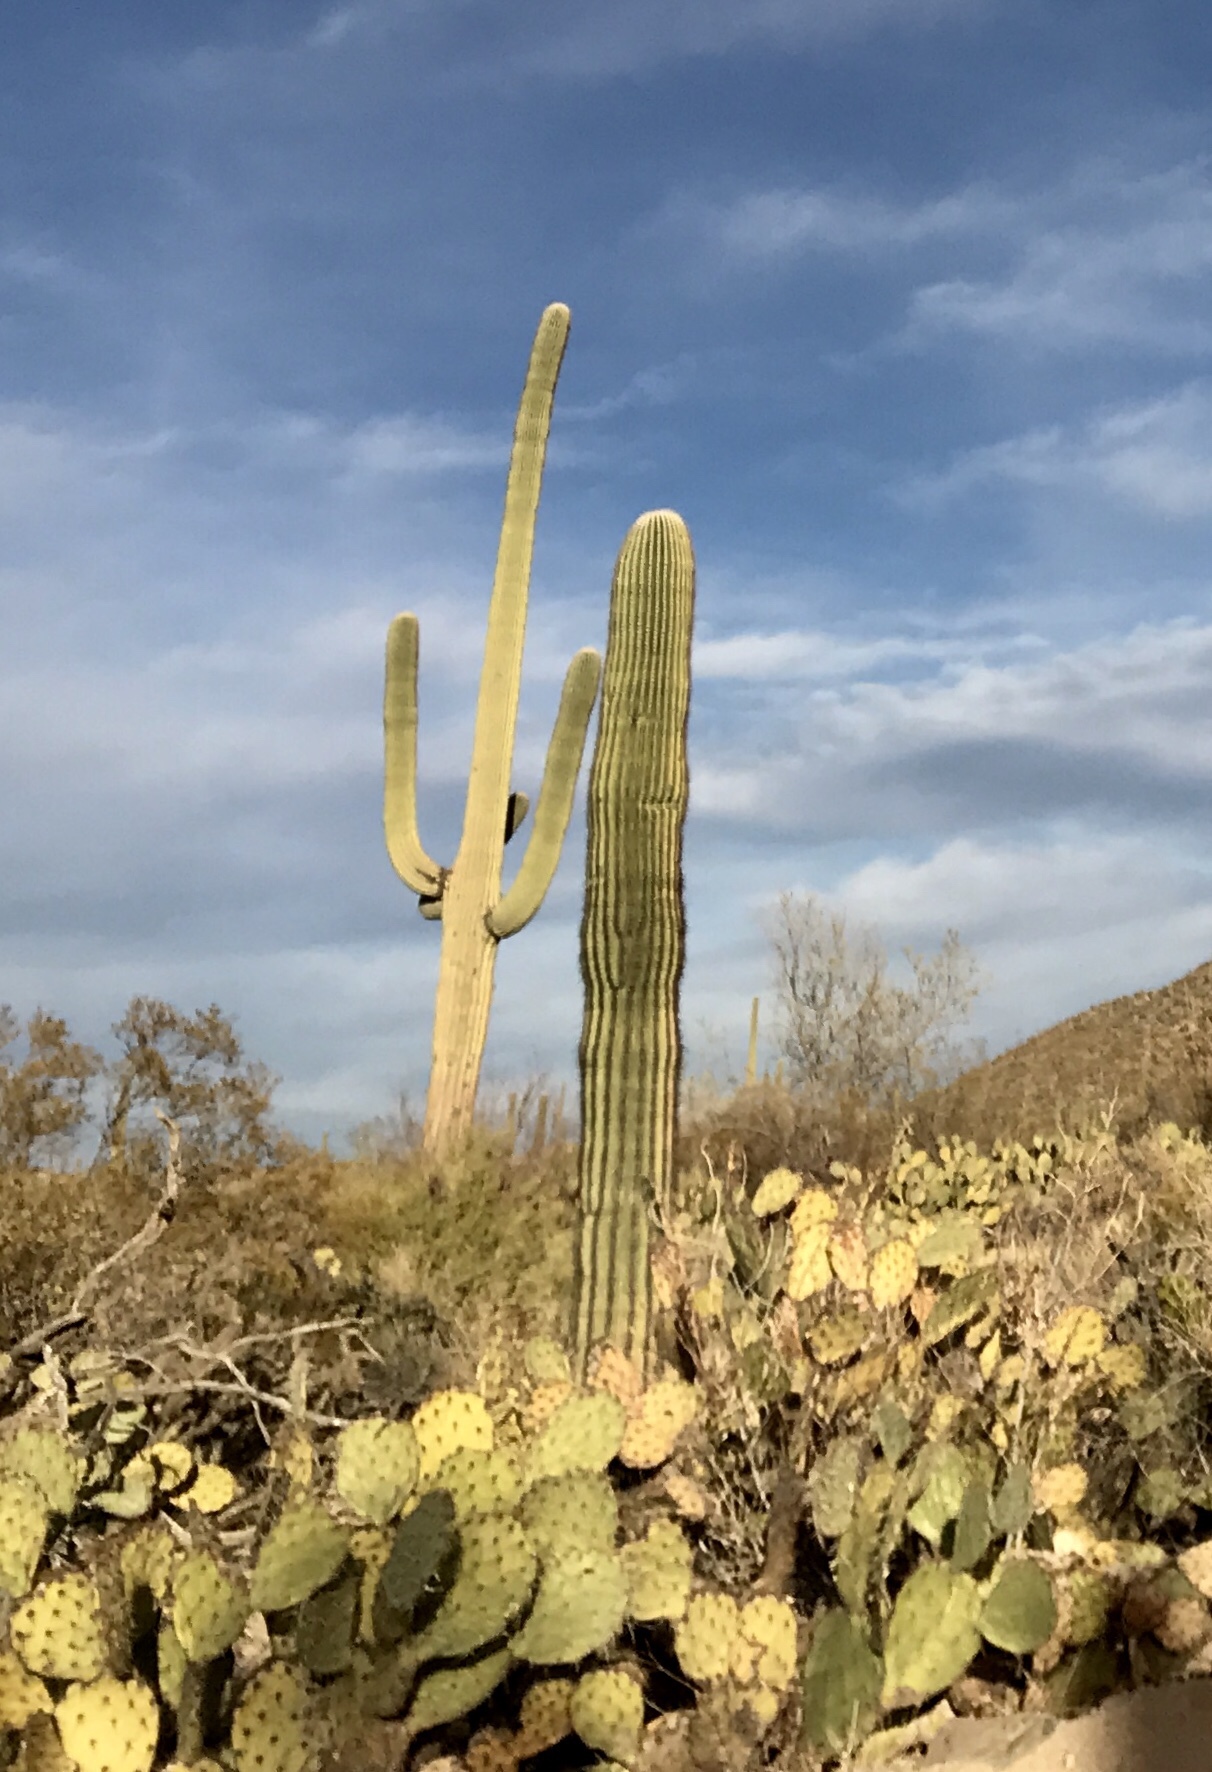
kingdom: Plantae
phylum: Tracheophyta
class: Magnoliopsida
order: Caryophyllales
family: Cactaceae
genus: Carnegiea
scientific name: Carnegiea gigantea
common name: Saguaro
